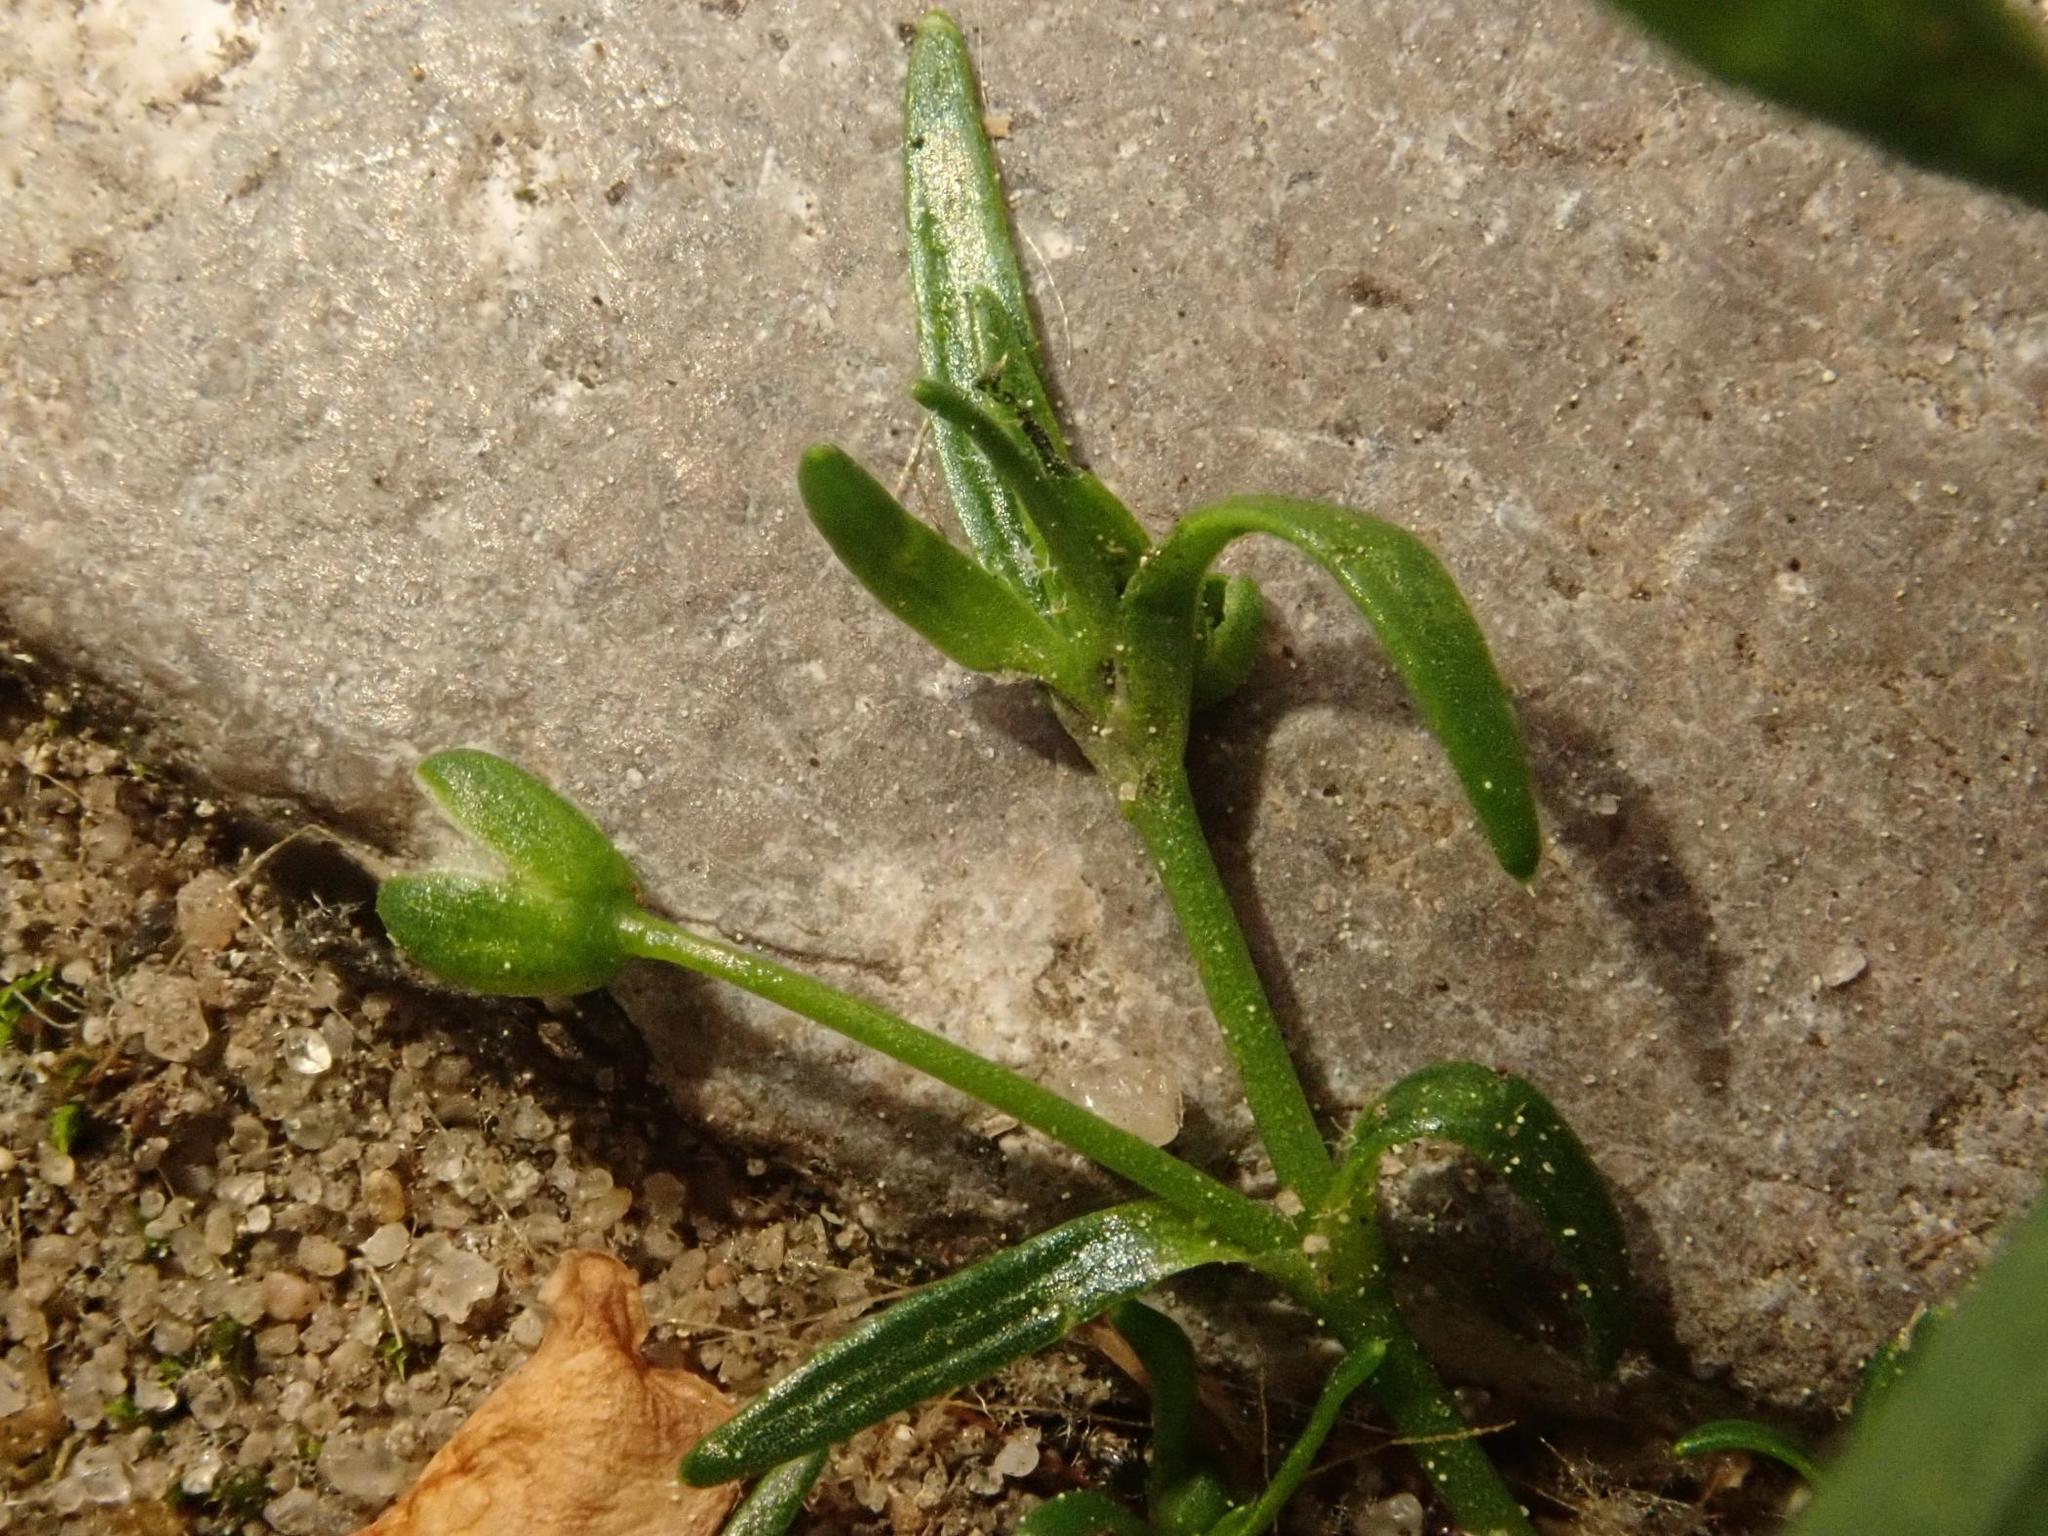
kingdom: Plantae
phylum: Tracheophyta
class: Magnoliopsida
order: Caryophyllales
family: Caryophyllaceae
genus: Sagina
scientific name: Sagina procumbens
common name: Procumbent pearlwort
